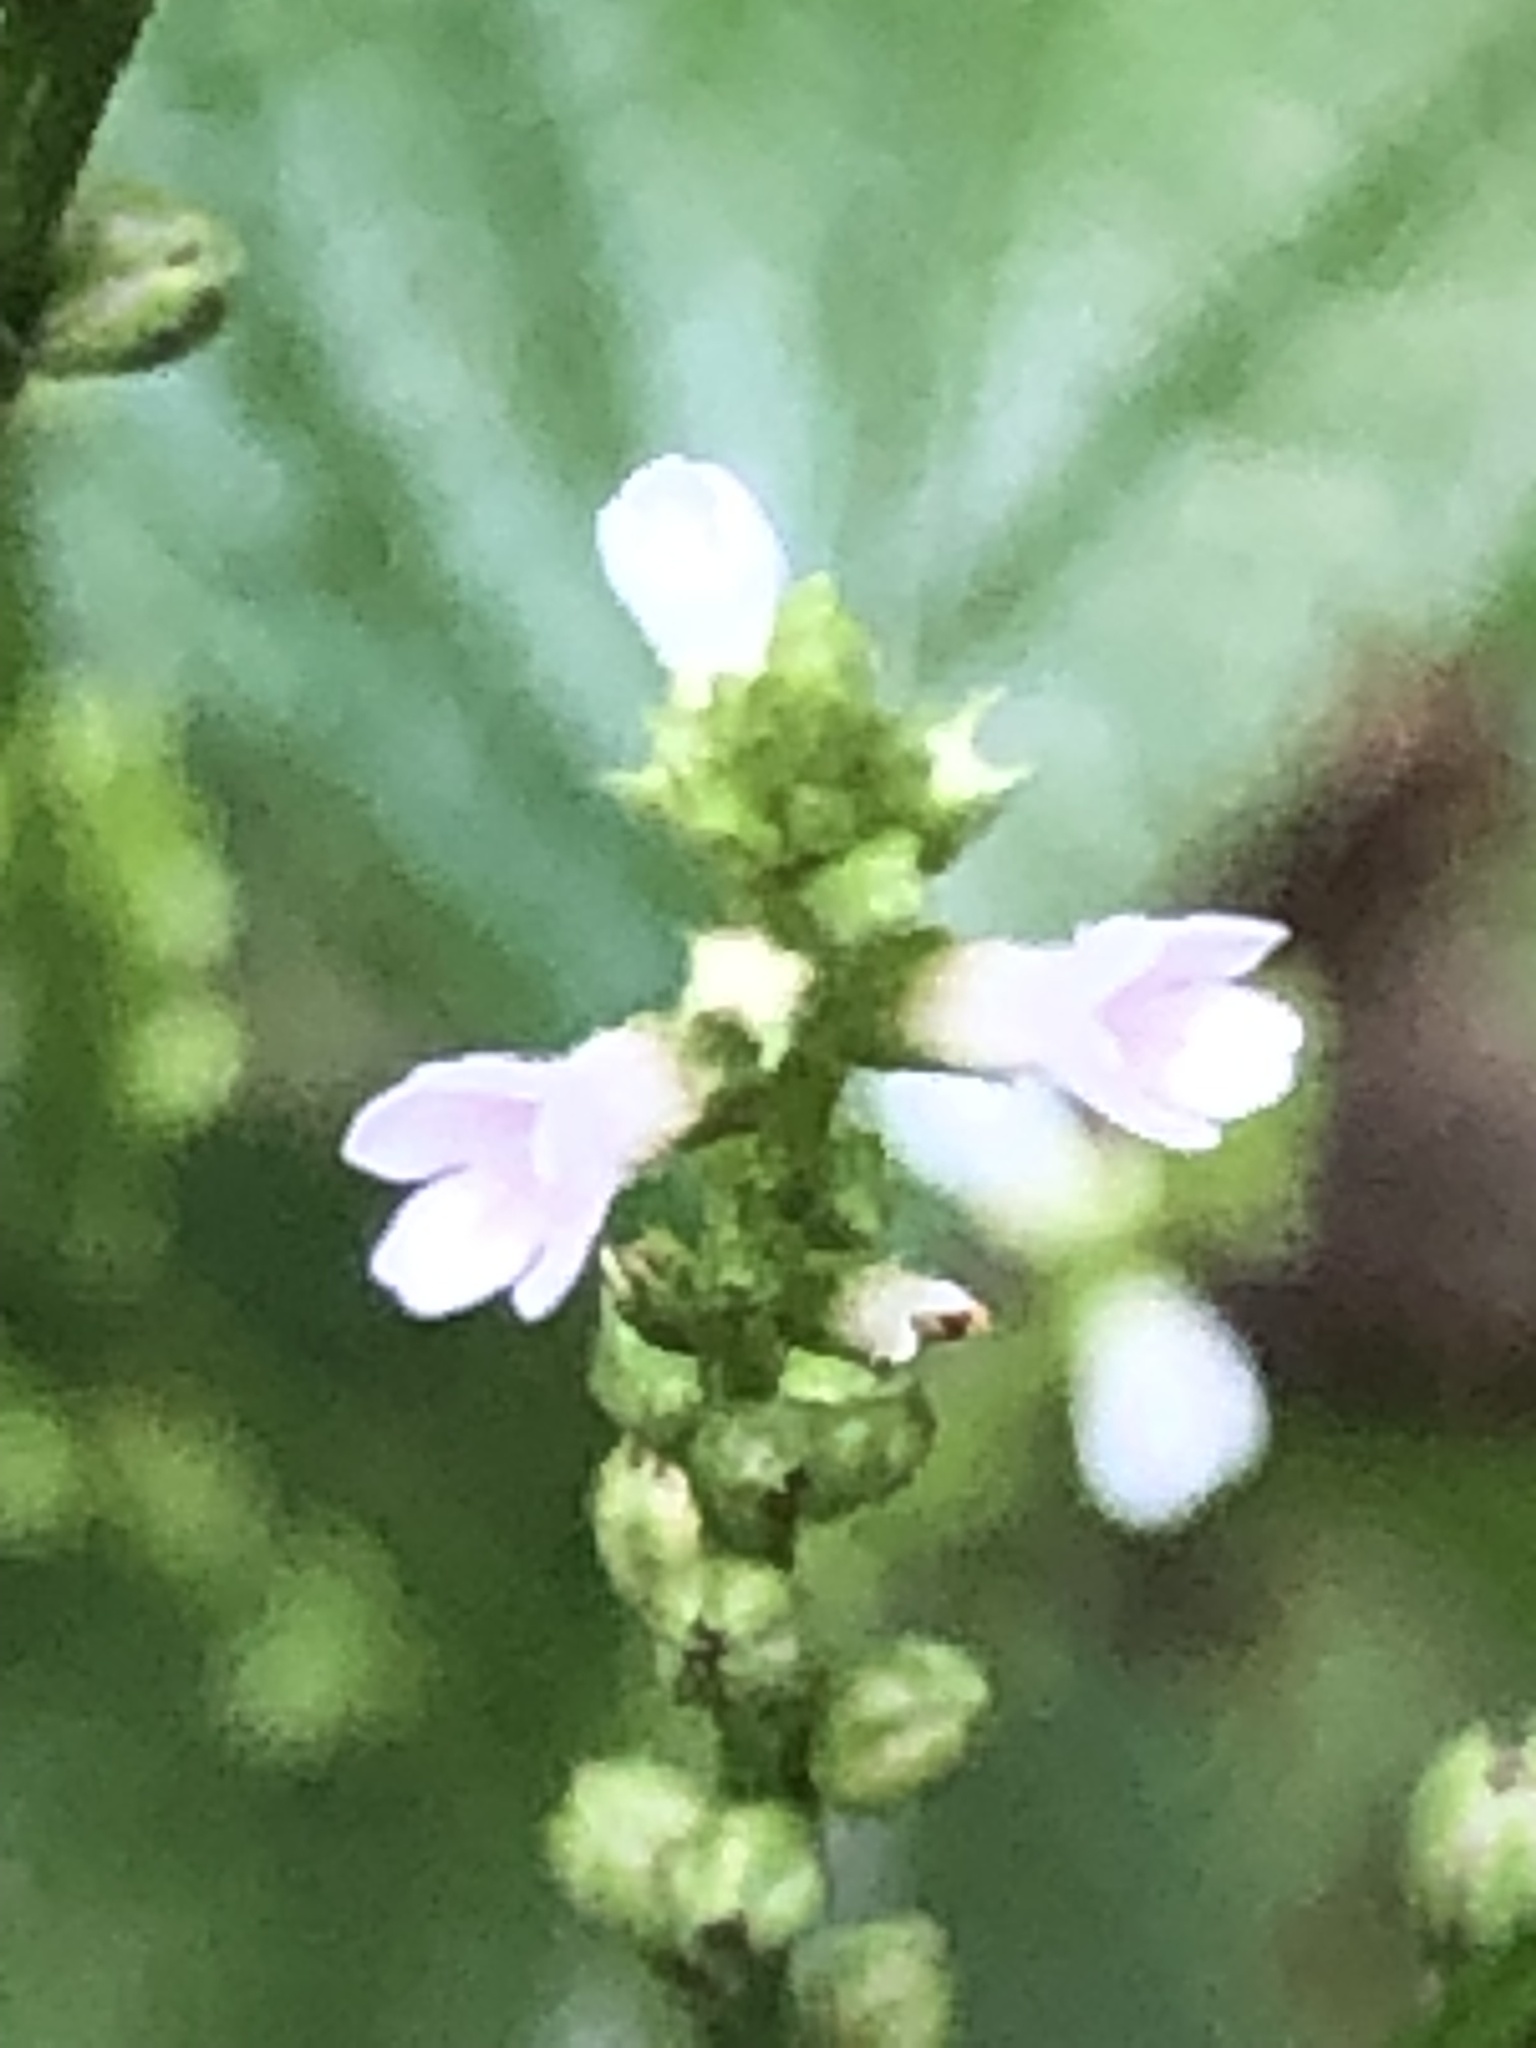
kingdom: Plantae
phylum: Tracheophyta
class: Magnoliopsida
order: Lamiales
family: Verbenaceae
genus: Verbena
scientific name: Verbena urticifolia
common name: Nettle-leaved vervain
